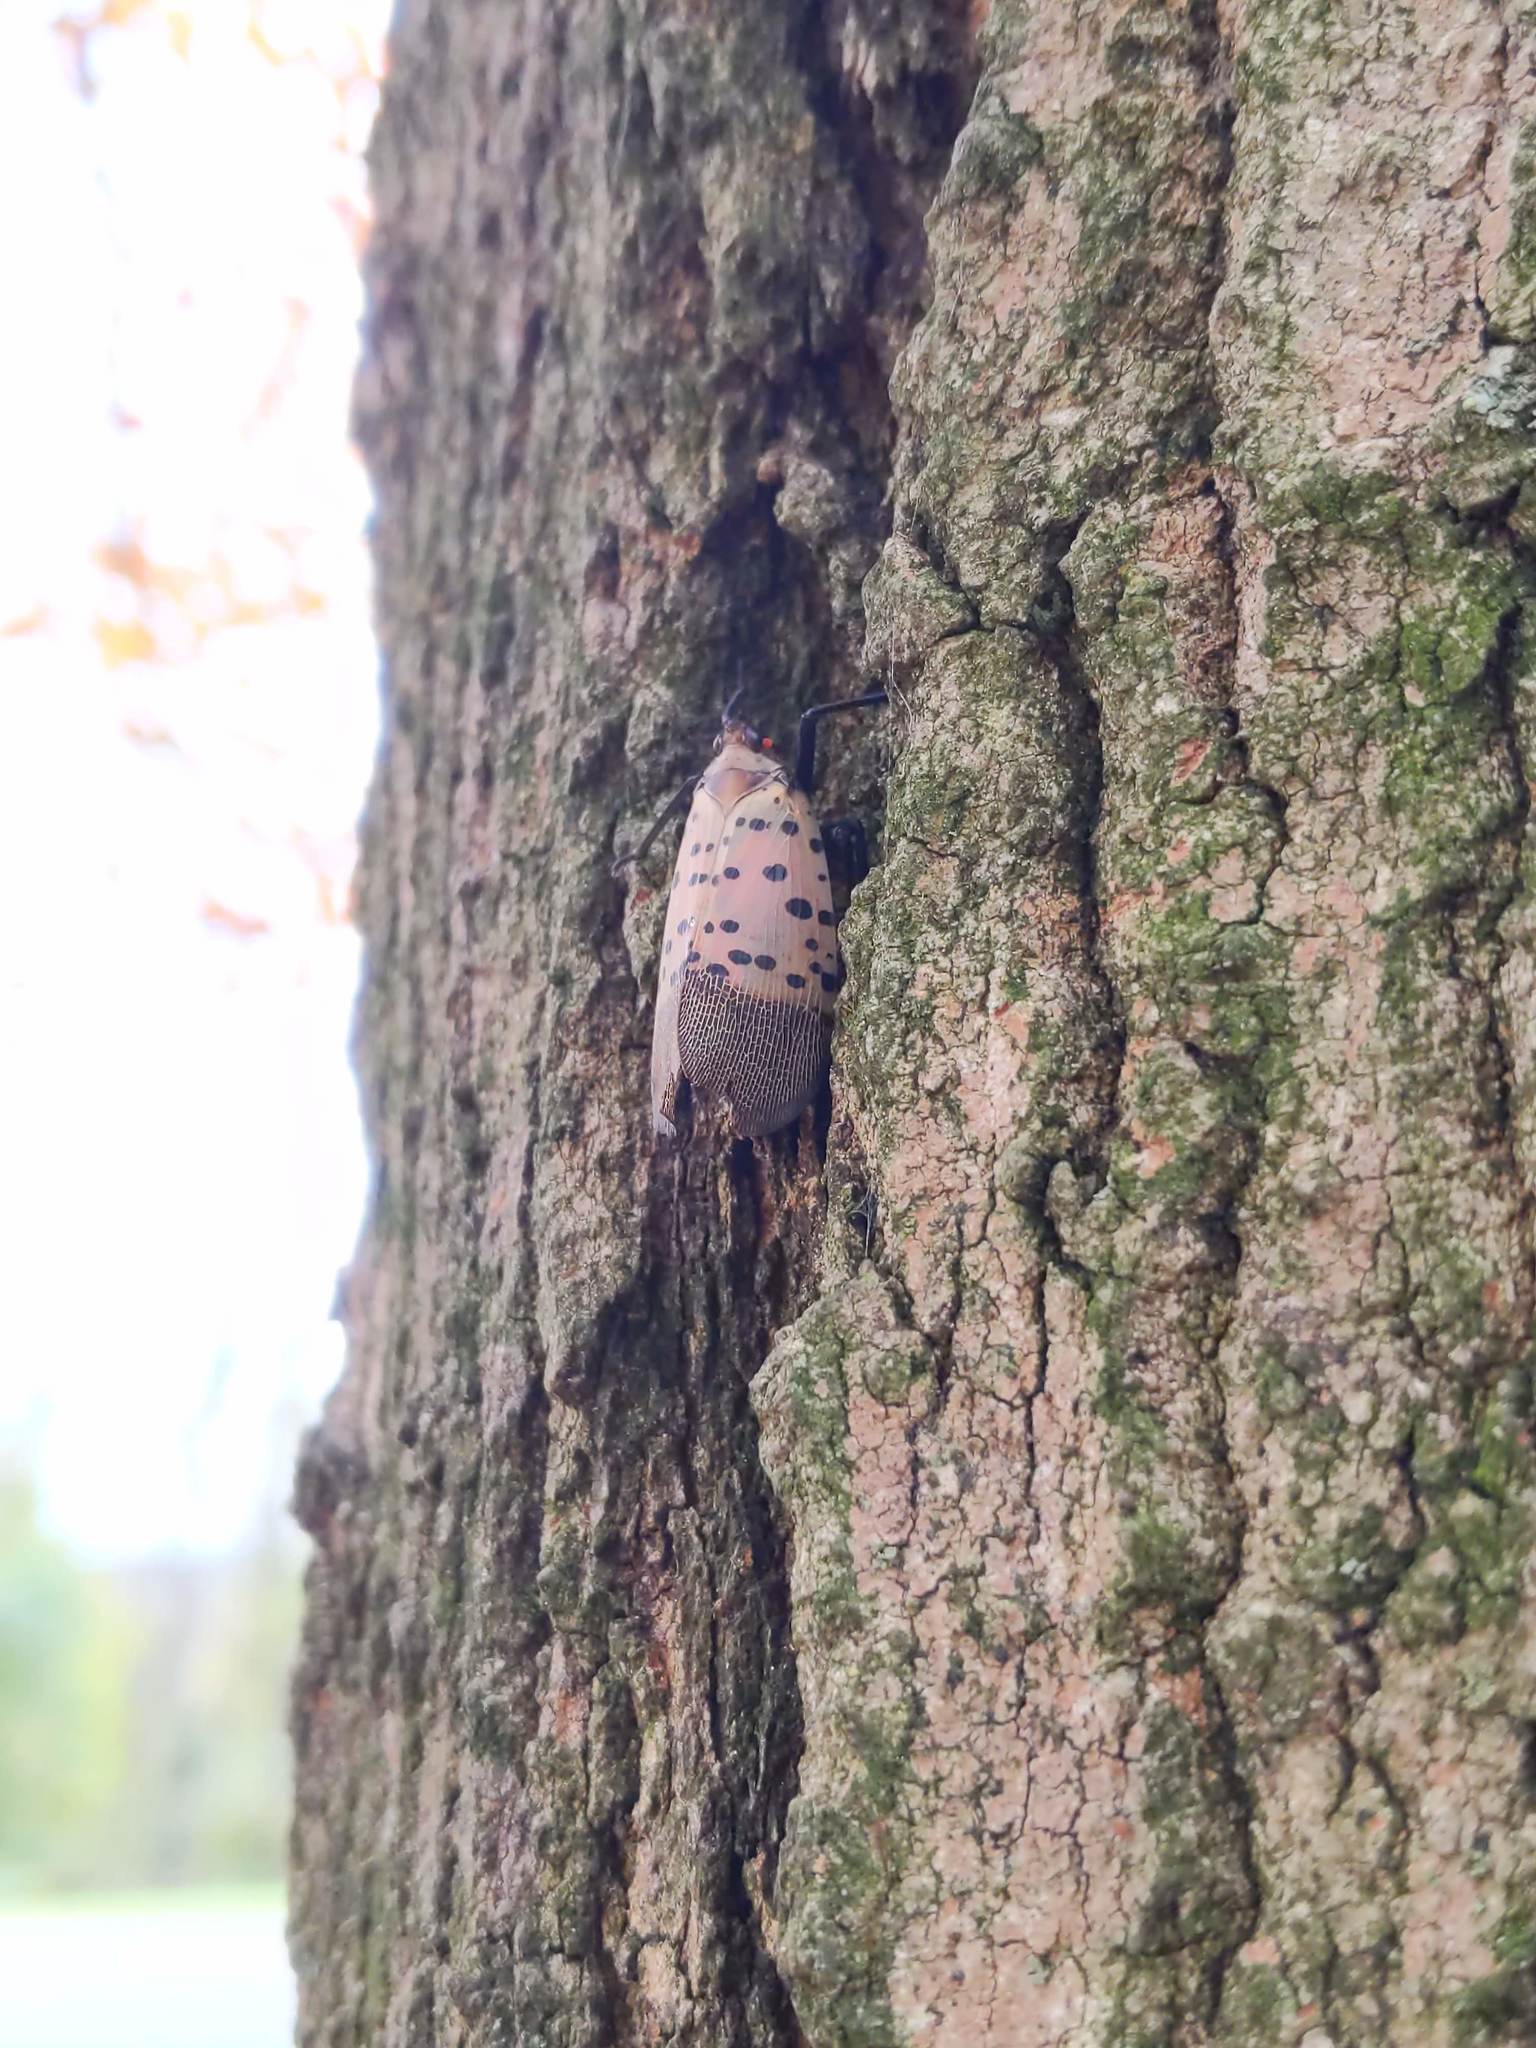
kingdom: Animalia
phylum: Arthropoda
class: Insecta
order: Hemiptera
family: Fulgoridae
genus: Lycorma
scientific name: Lycorma delicatula
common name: Spotted lanternfly
